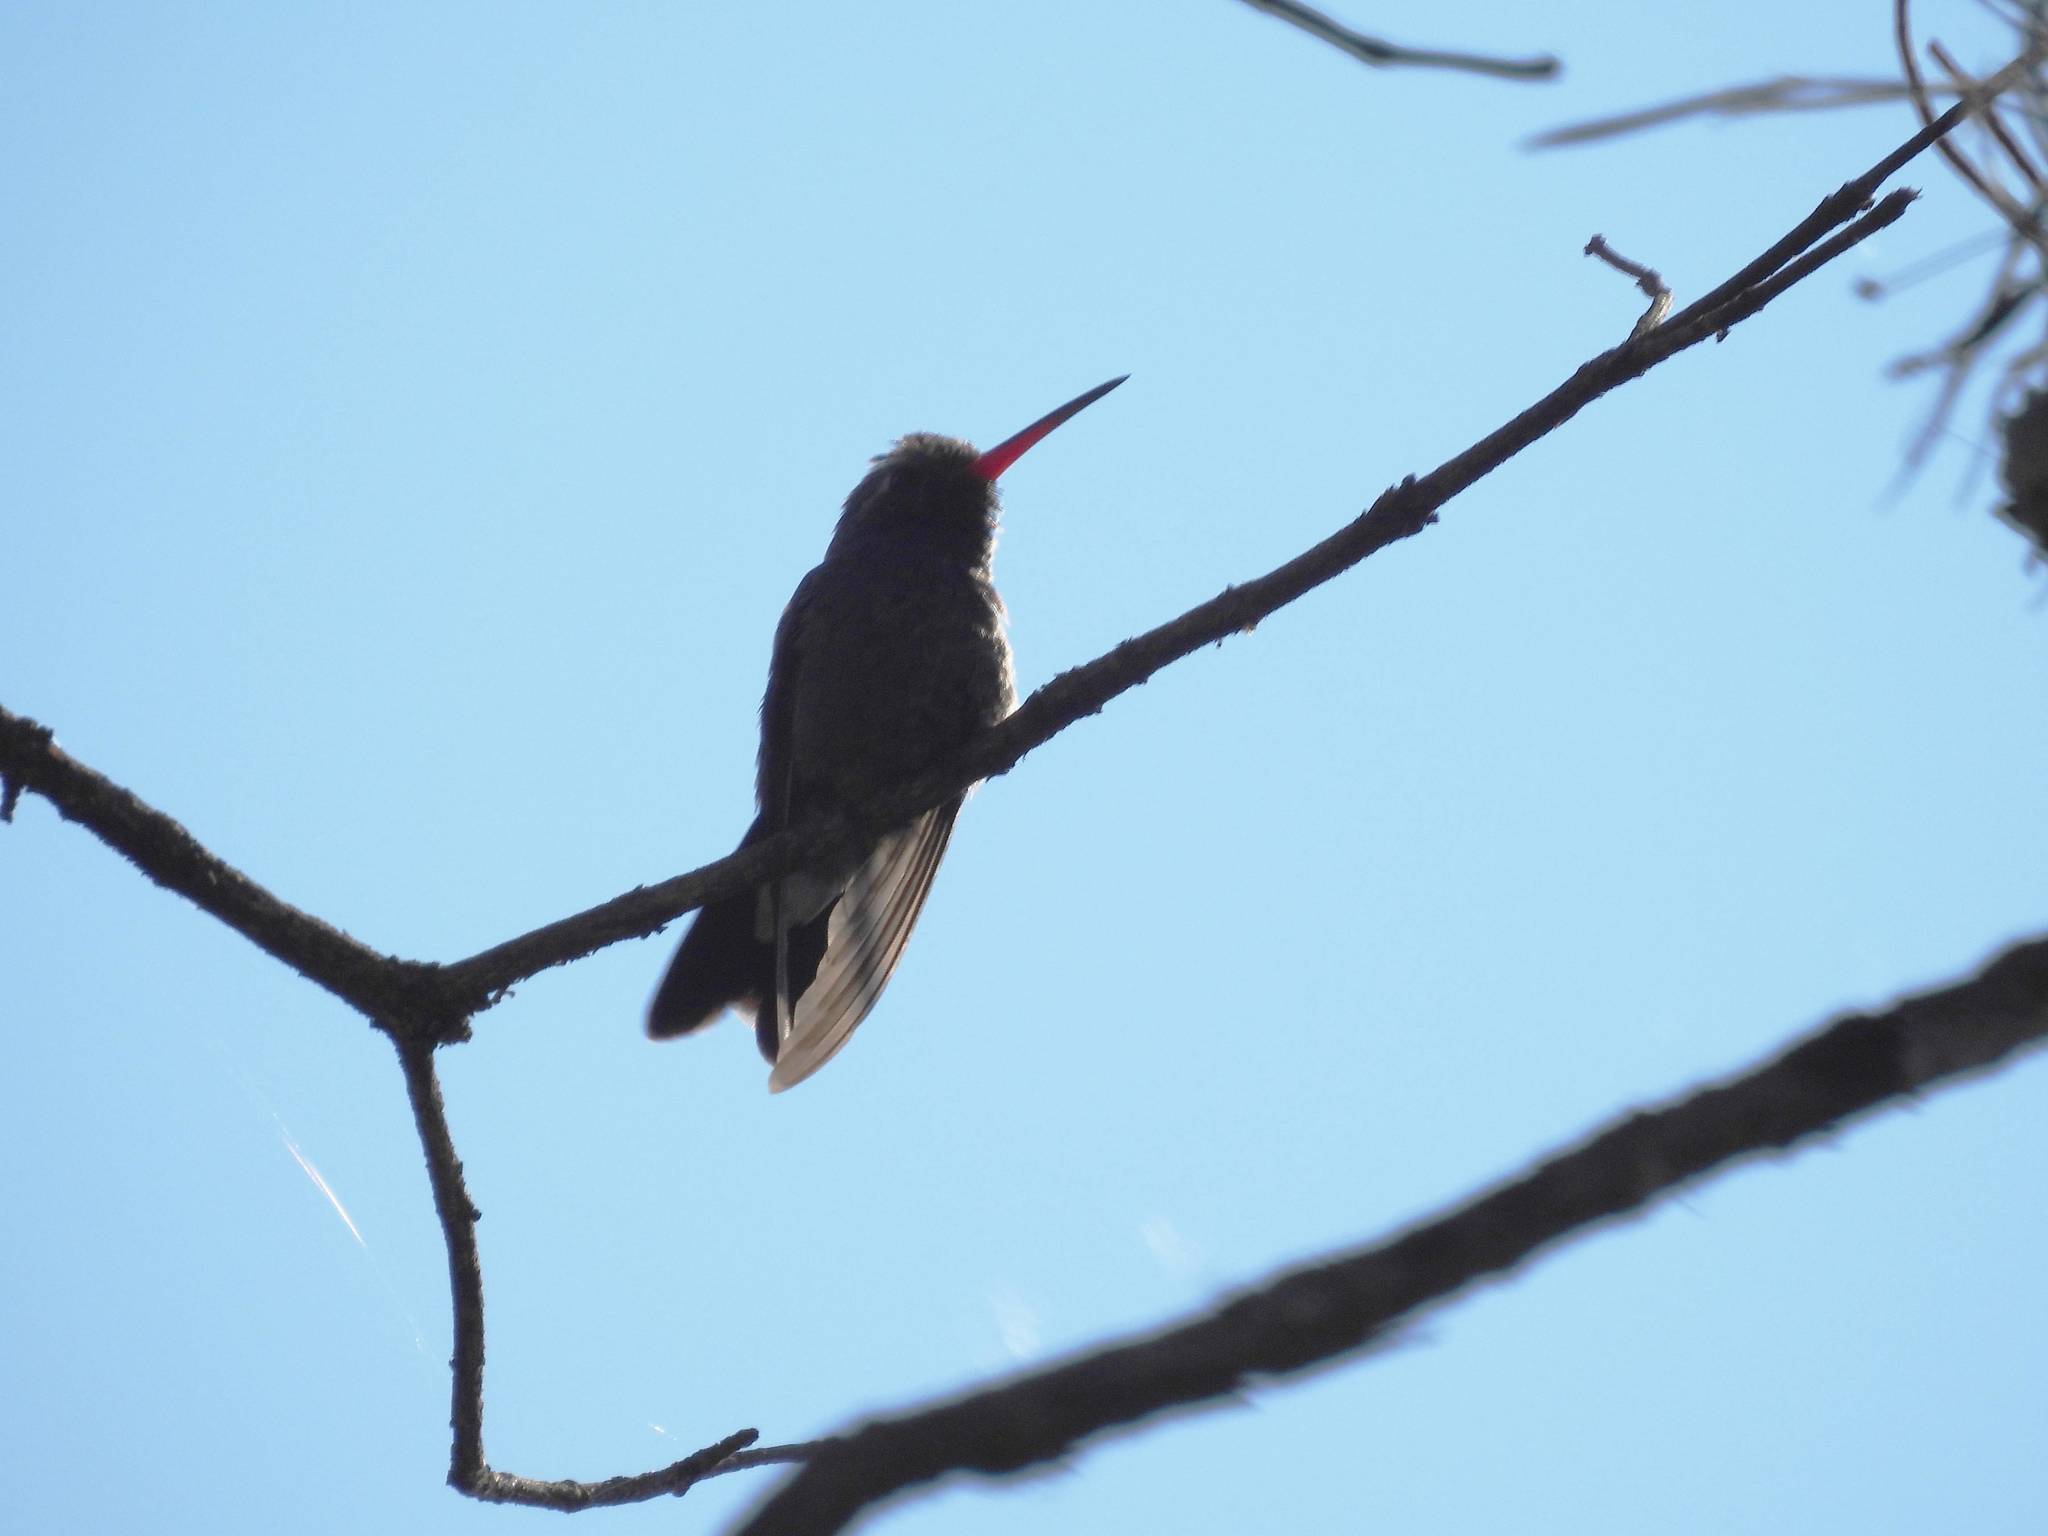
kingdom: Animalia
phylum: Chordata
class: Aves
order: Apodiformes
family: Trochilidae
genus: Cynanthus
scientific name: Cynanthus latirostris
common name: Broad-billed hummingbird
